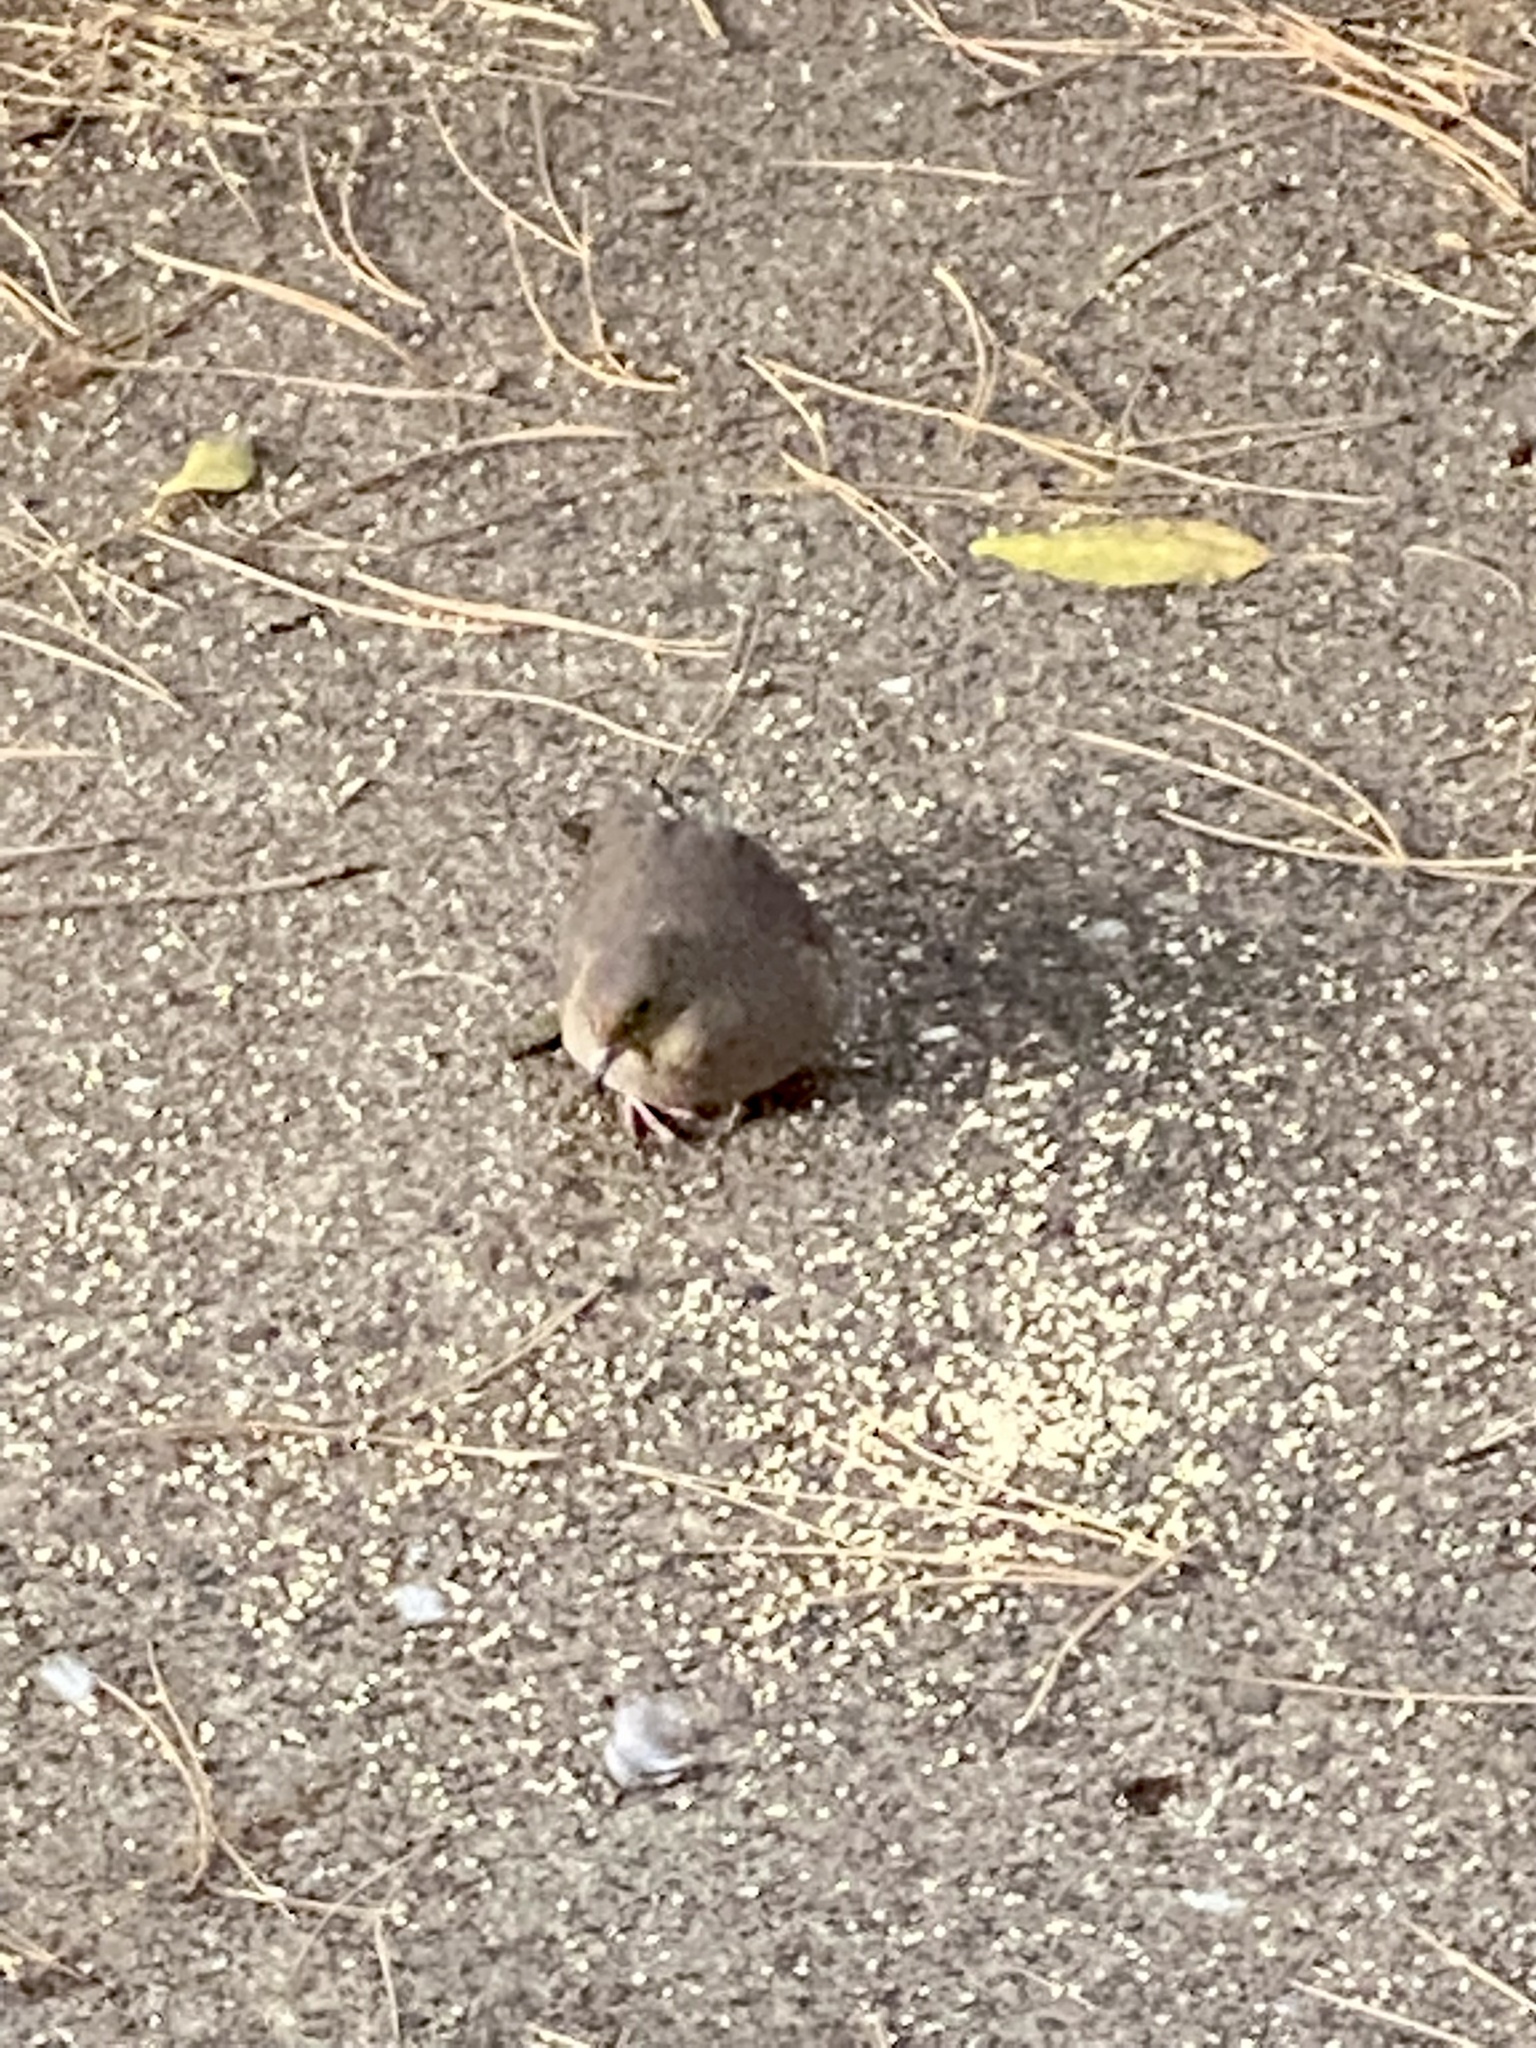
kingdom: Animalia
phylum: Chordata
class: Aves
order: Columbiformes
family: Columbidae
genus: Zenaida
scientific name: Zenaida macroura
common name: Mourning dove
